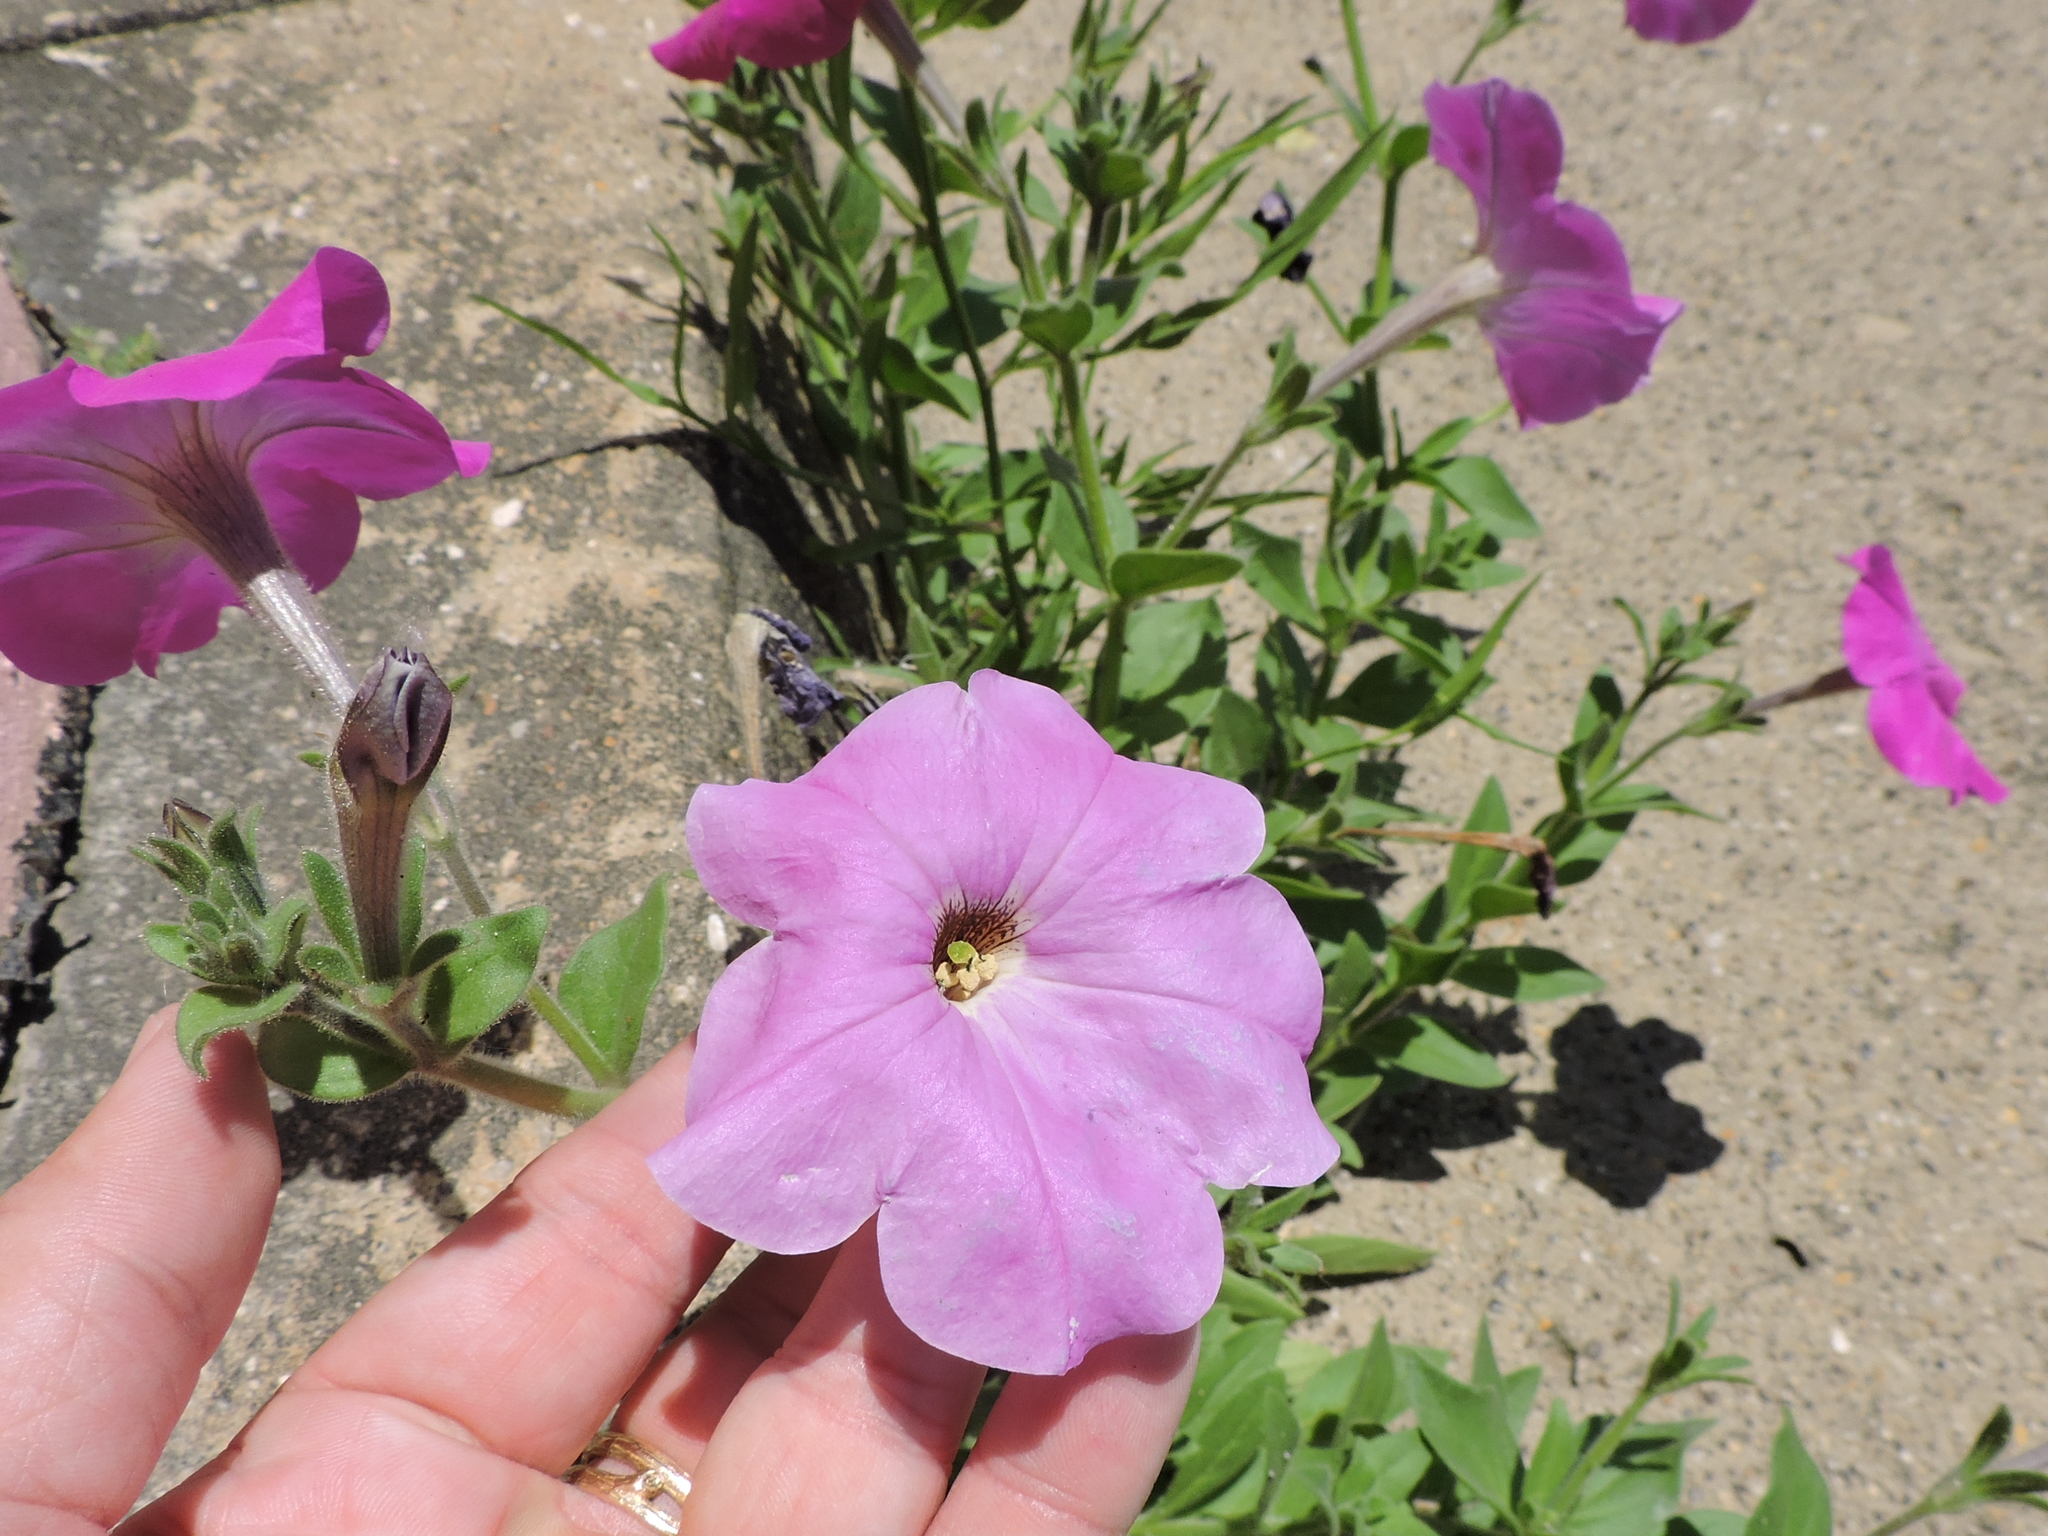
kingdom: Plantae
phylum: Tracheophyta
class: Magnoliopsida
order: Solanales
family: Solanaceae
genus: Petunia
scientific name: Petunia atkinsiana
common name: Petunia
